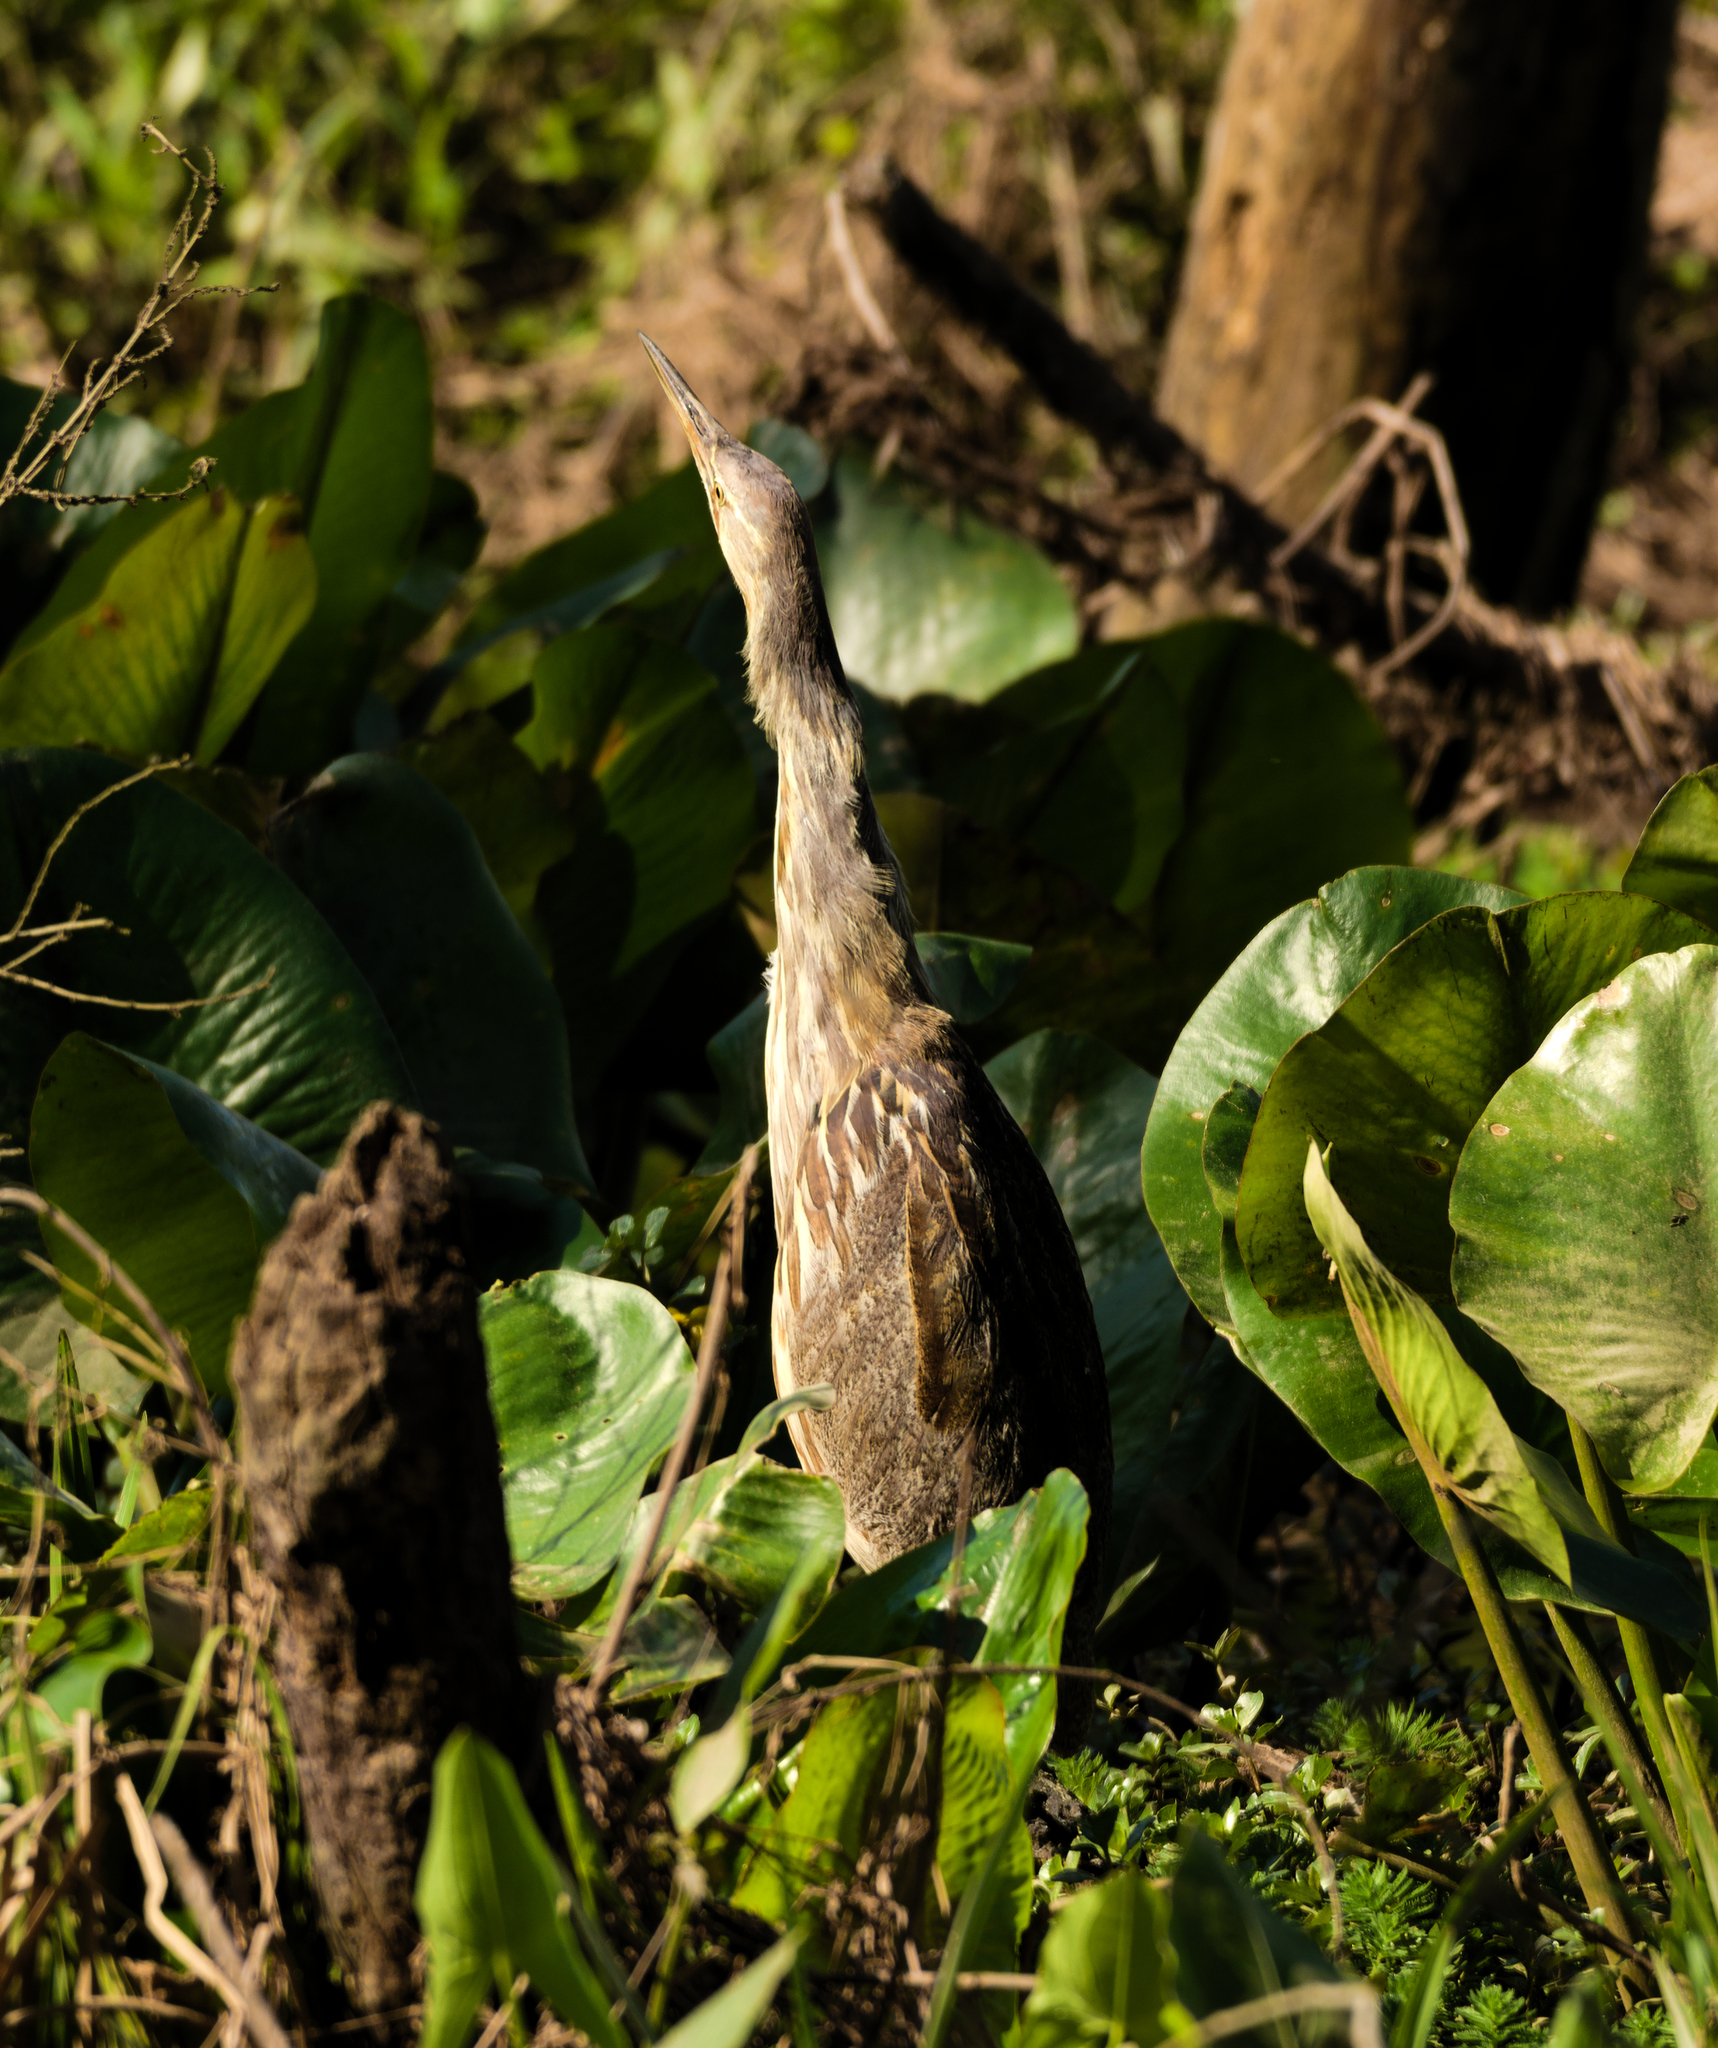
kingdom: Animalia
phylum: Chordata
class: Aves
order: Pelecaniformes
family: Ardeidae
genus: Botaurus
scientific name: Botaurus lentiginosus
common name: American bittern
